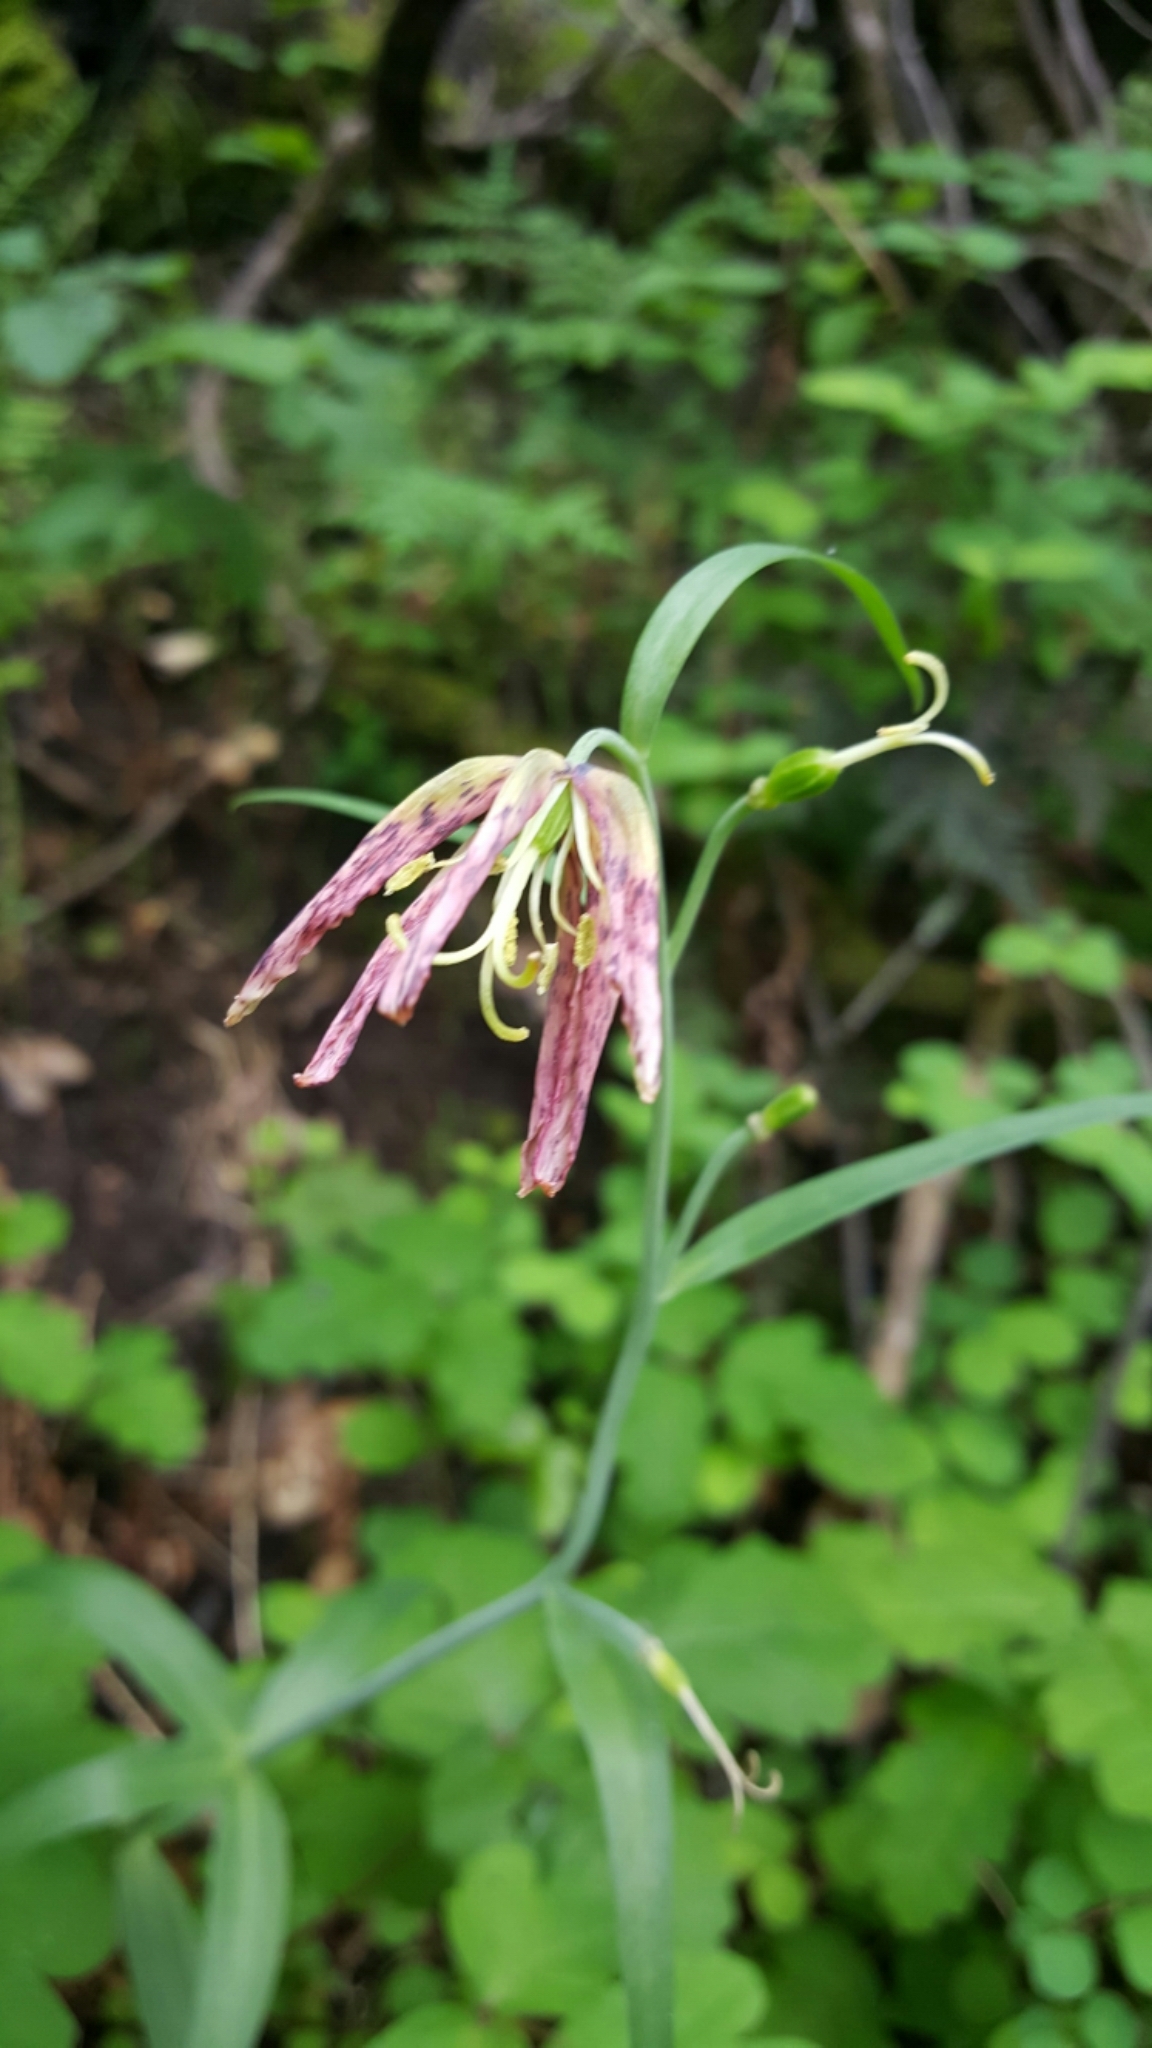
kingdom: Plantae
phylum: Tracheophyta
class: Liliopsida
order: Liliales
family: Liliaceae
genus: Fritillaria
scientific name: Fritillaria affinis
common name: Ojai fritillary
